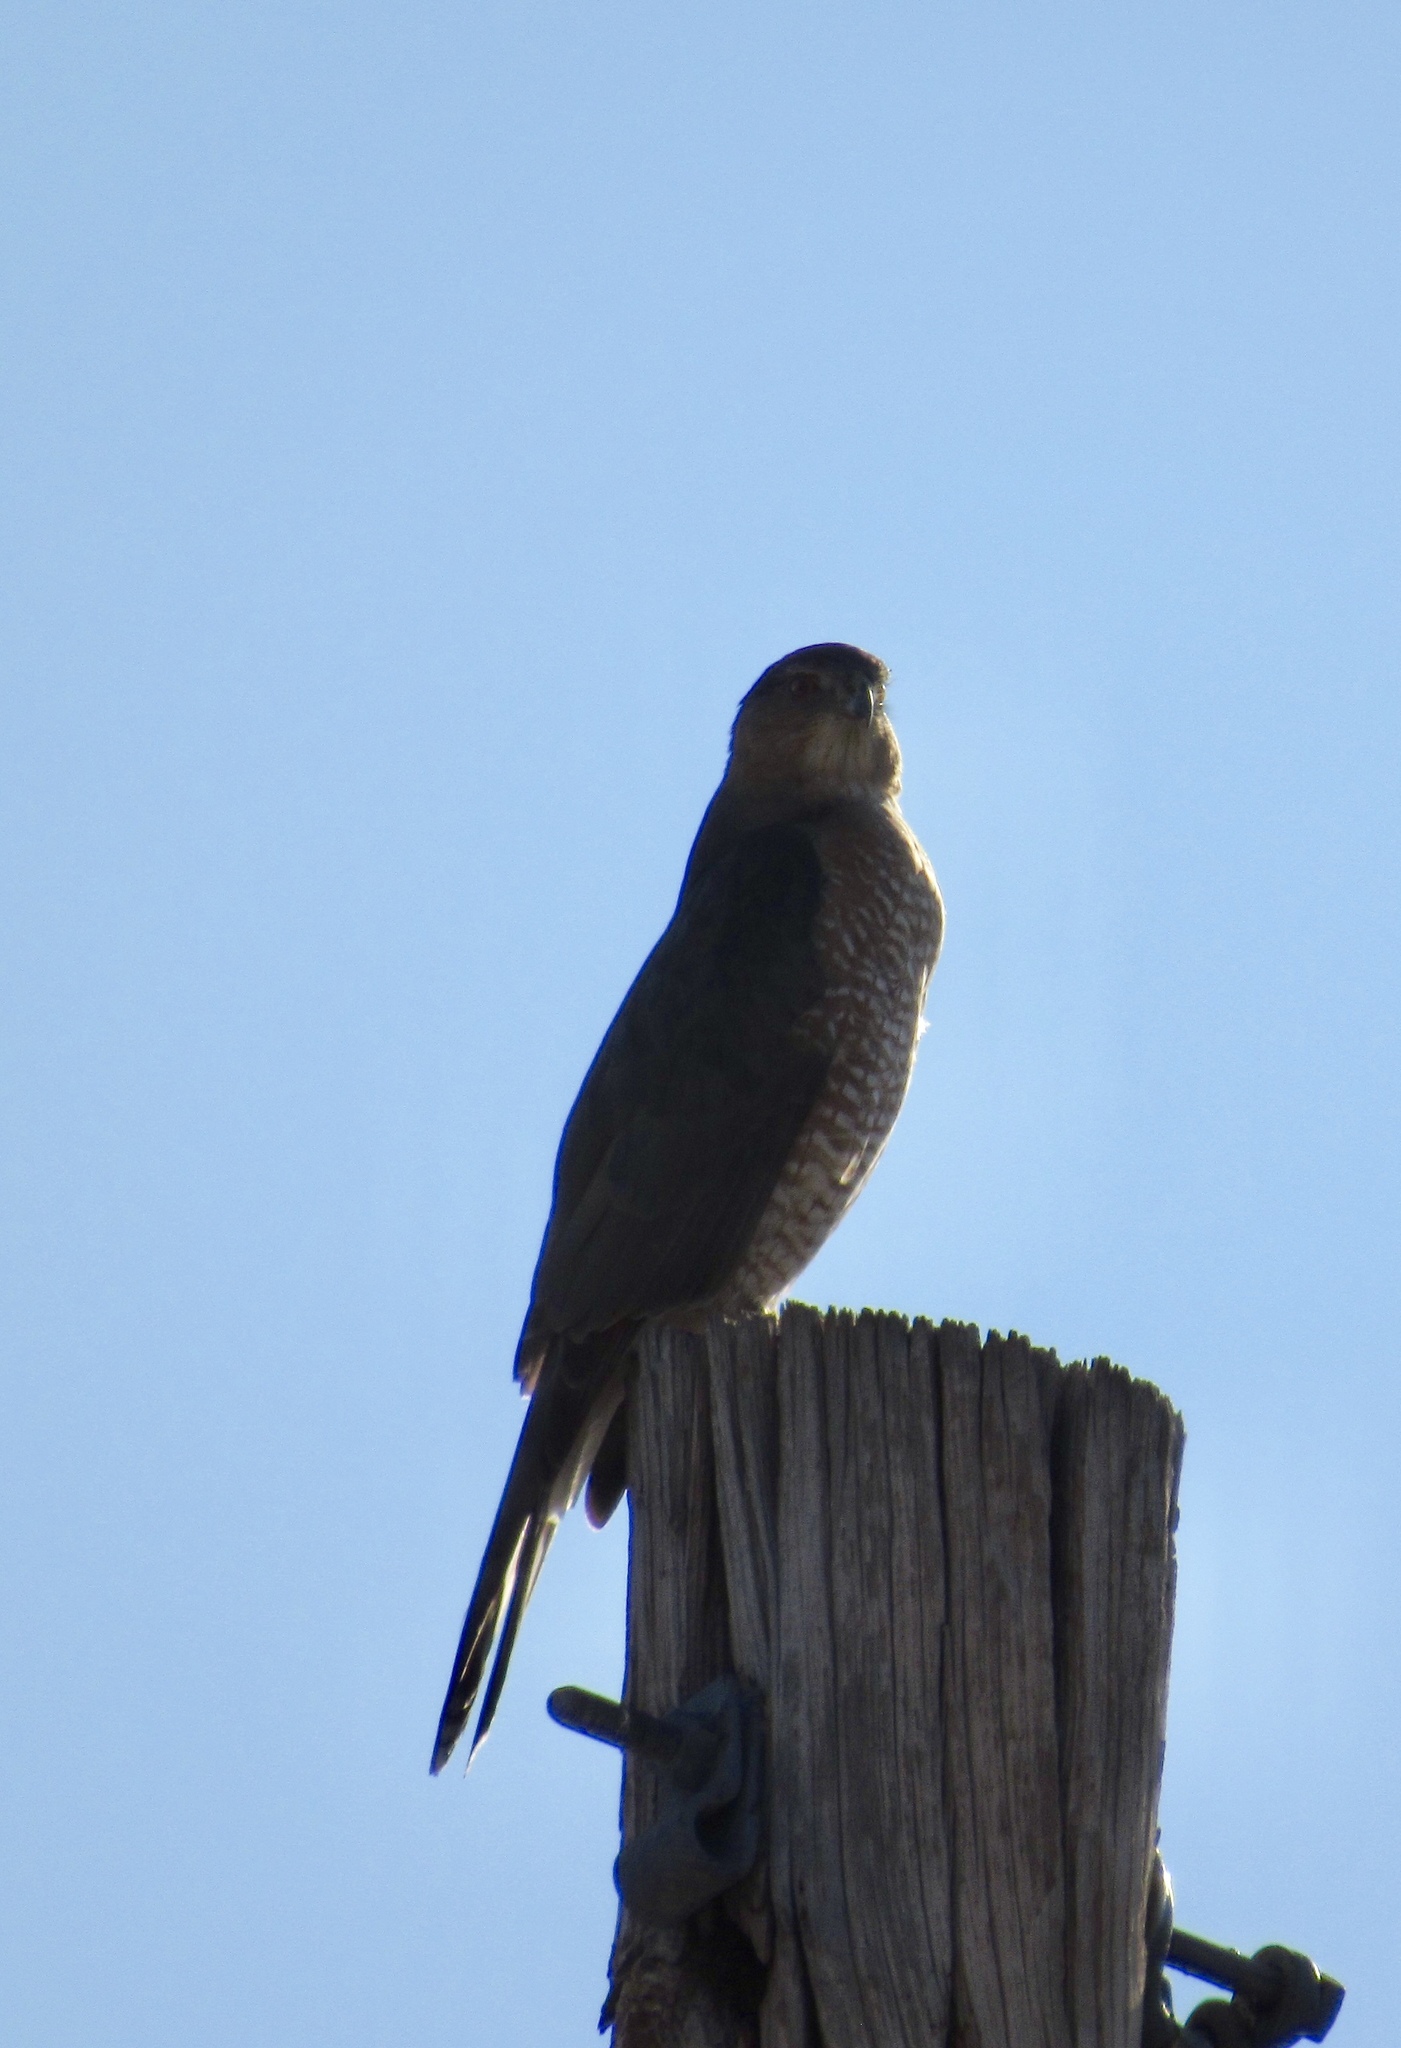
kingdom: Animalia
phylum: Chordata
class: Aves
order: Accipitriformes
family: Accipitridae
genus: Accipiter
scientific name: Accipiter cooperii
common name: Cooper's hawk
